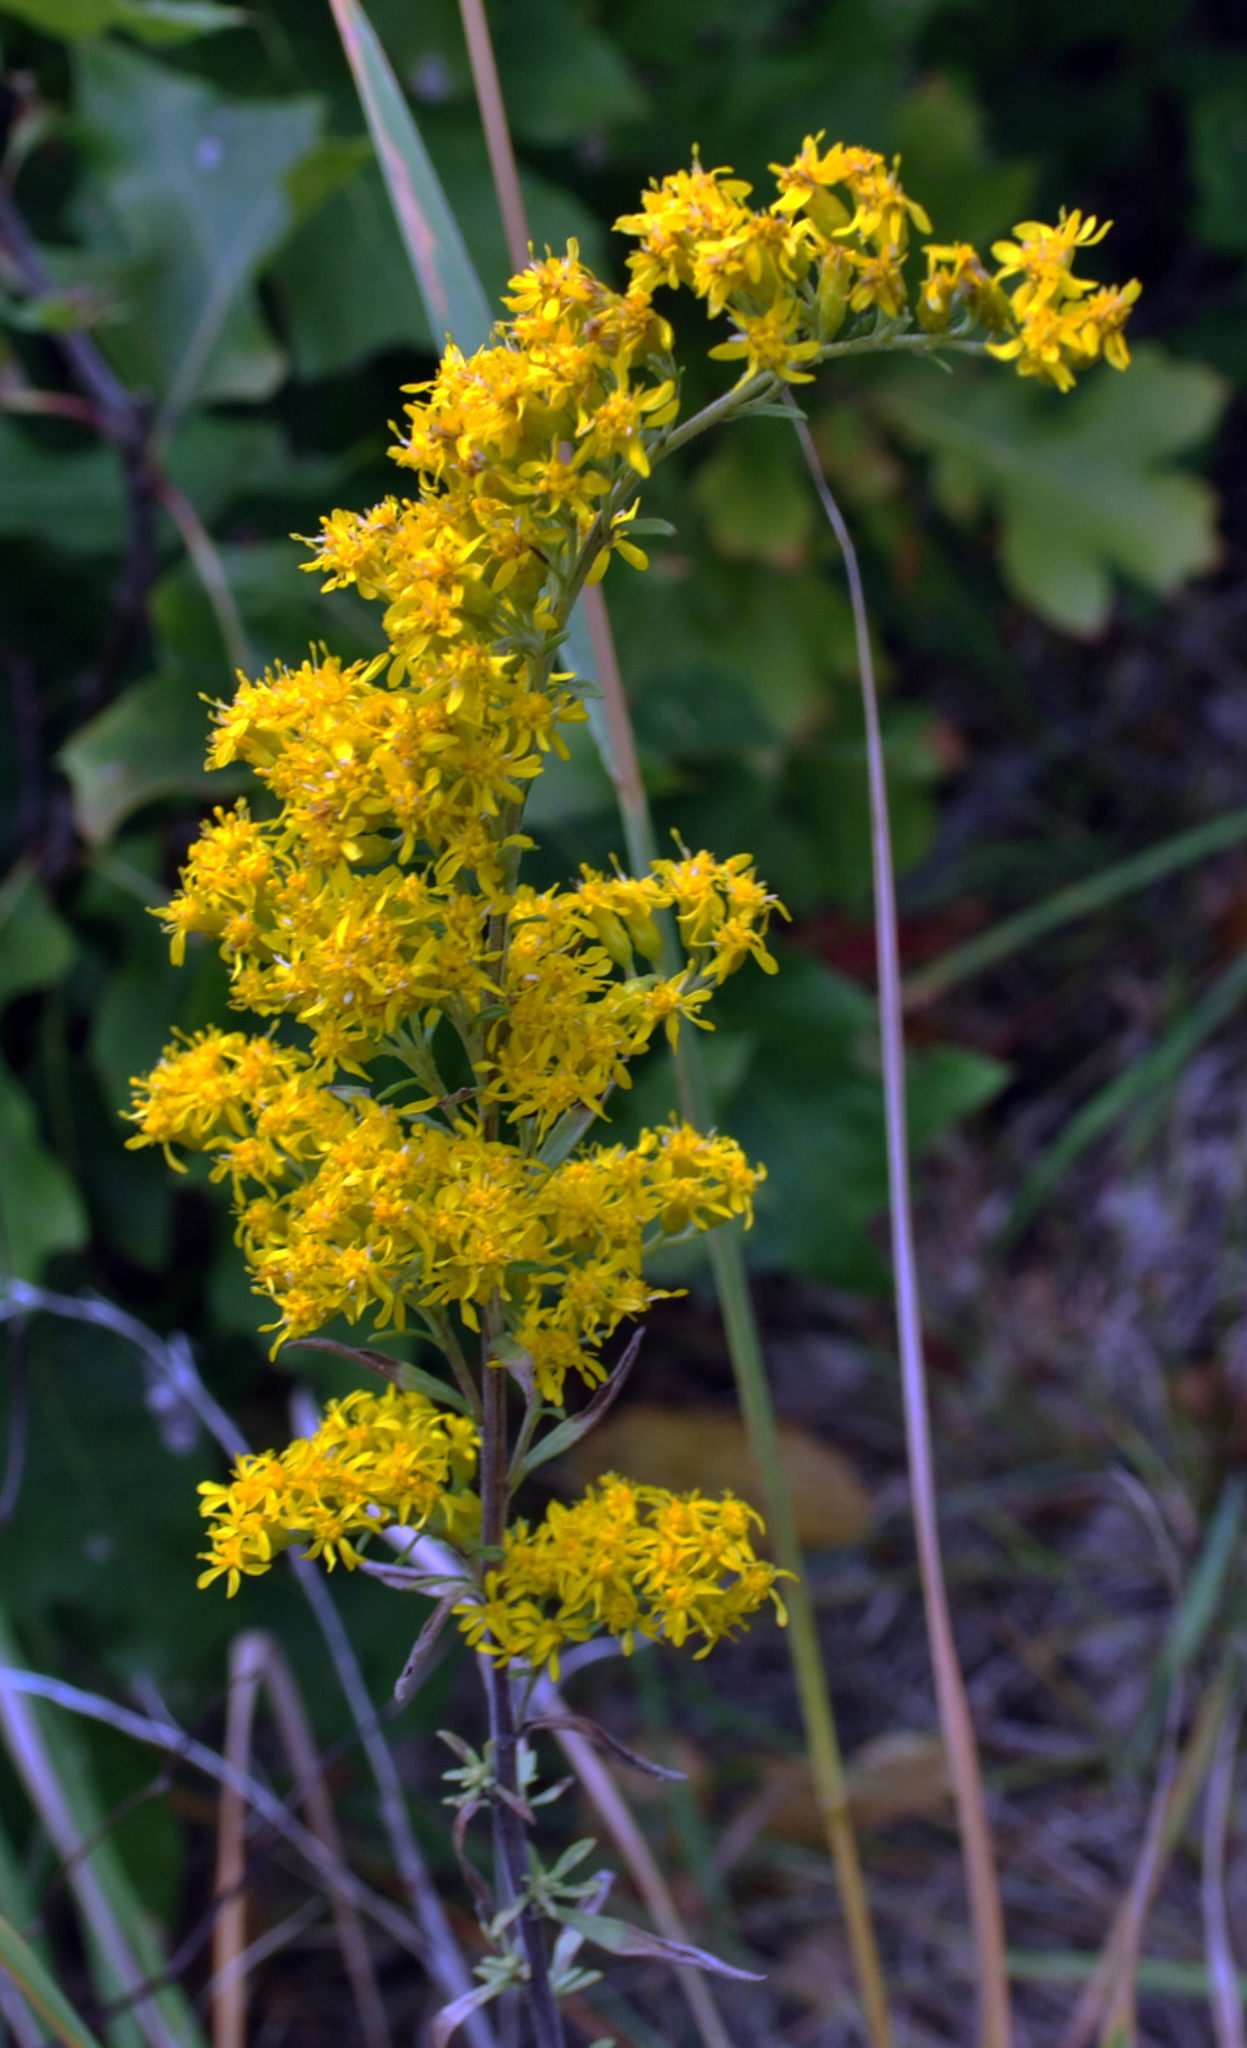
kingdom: Plantae
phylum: Tracheophyta
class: Magnoliopsida
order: Asterales
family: Asteraceae
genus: Solidago
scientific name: Solidago nemoralis
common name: Grey goldenrod
